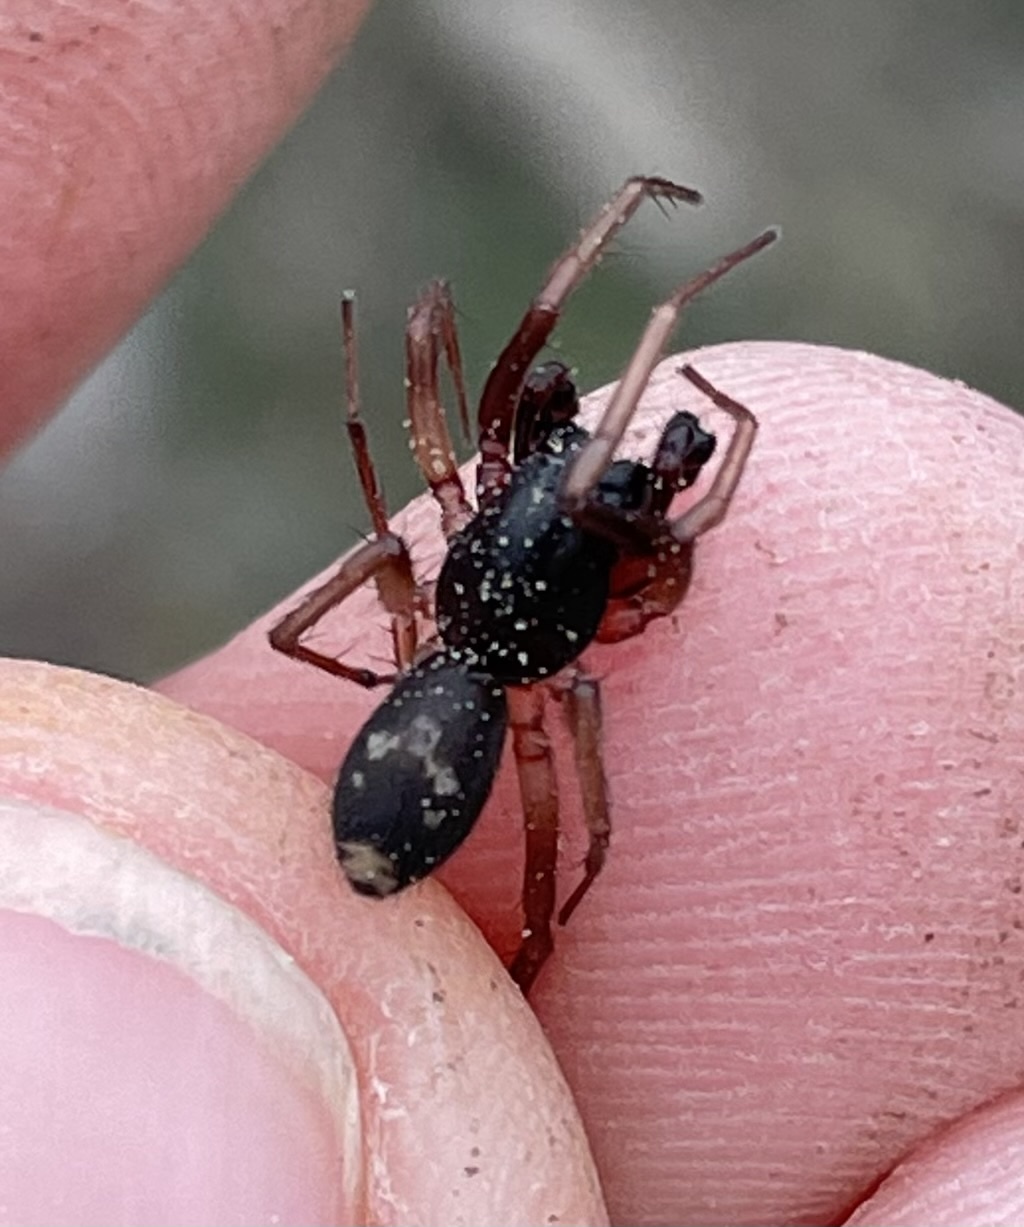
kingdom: Animalia
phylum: Arthropoda
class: Arachnida
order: Araneae
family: Corinnidae
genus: Falconina
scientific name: Falconina gracilis
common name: Antmimic spider
